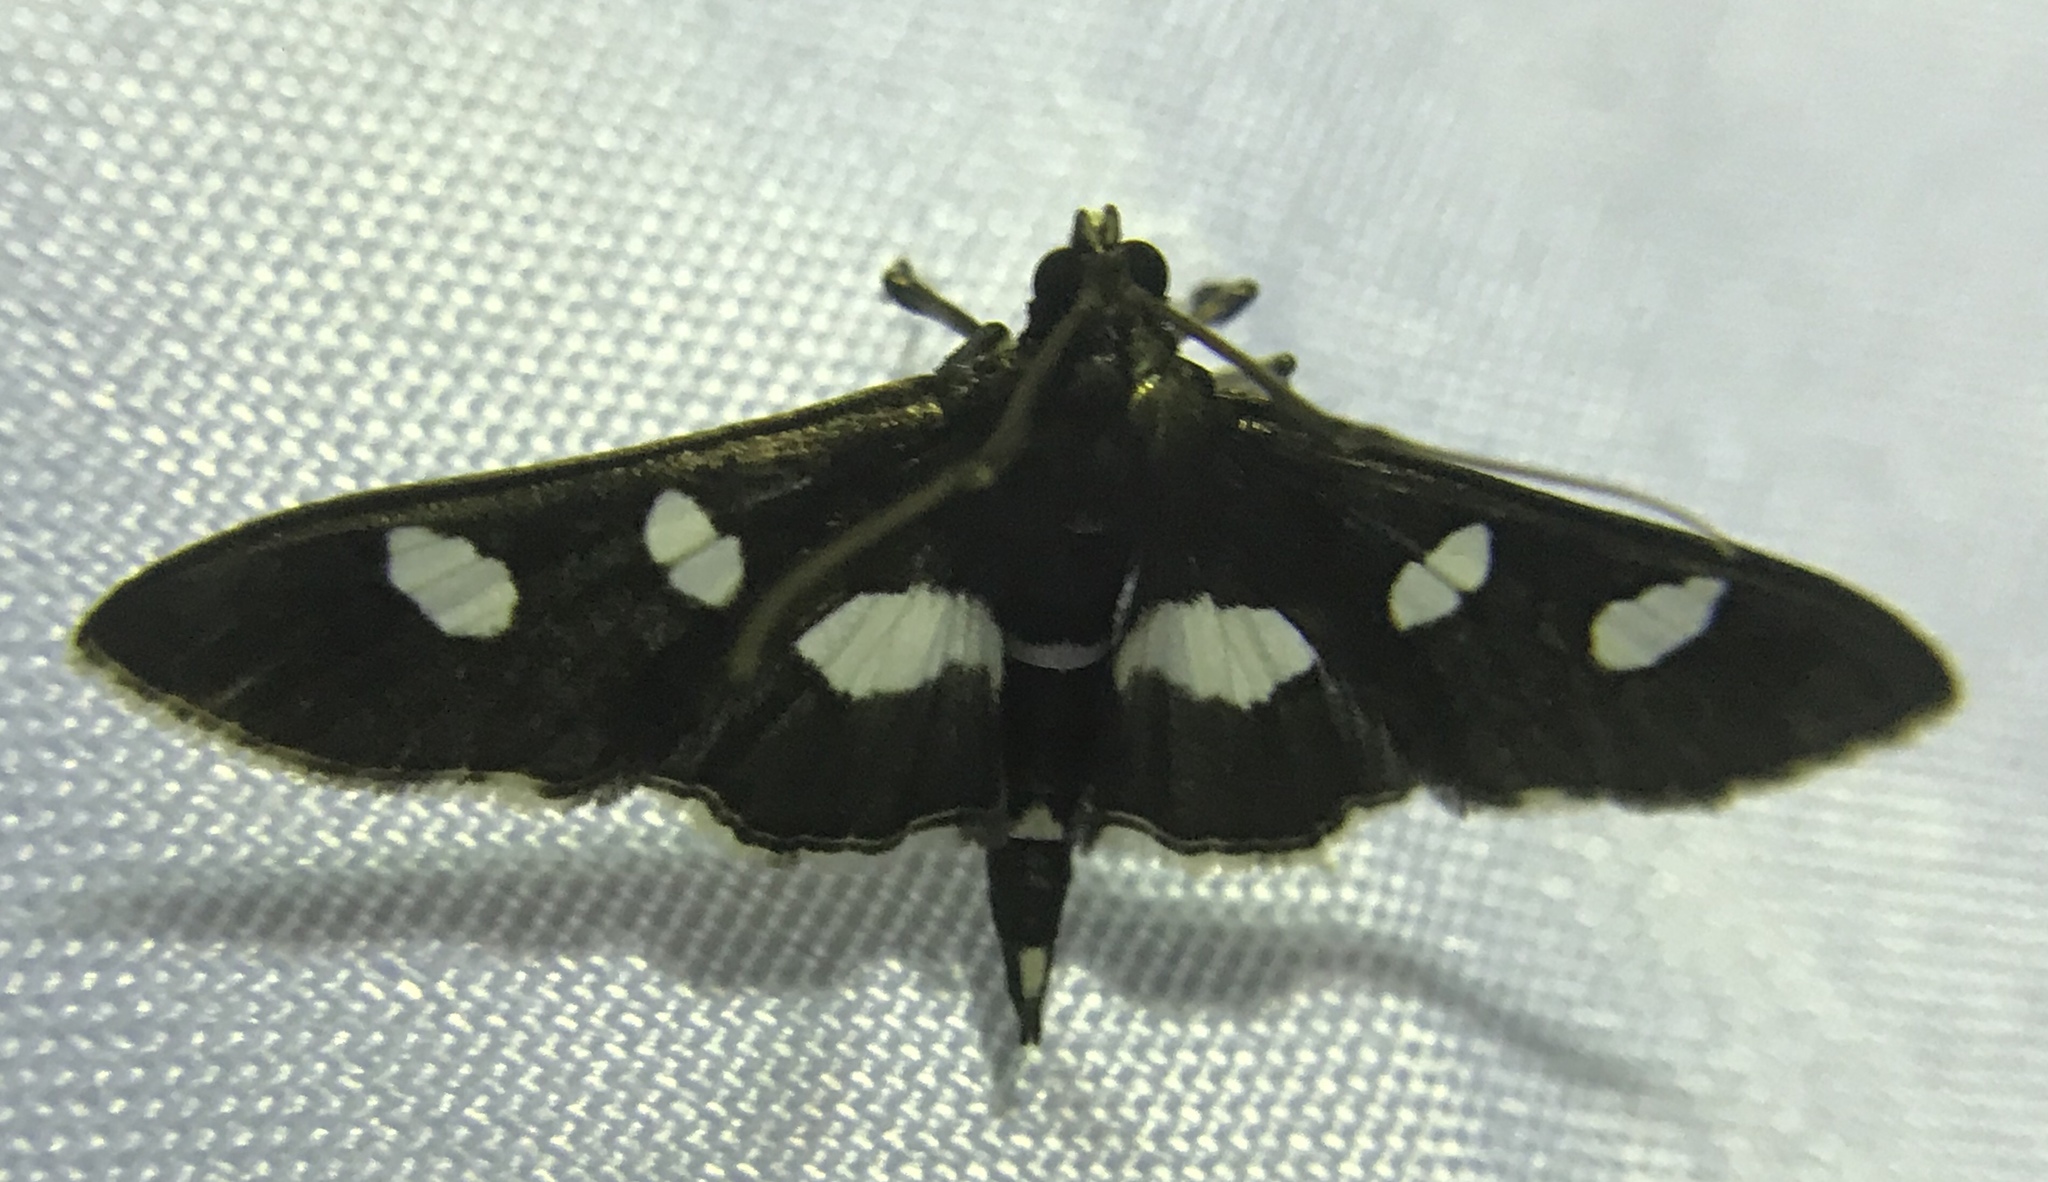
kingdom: Animalia
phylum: Arthropoda
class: Insecta
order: Lepidoptera
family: Crambidae
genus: Desmia
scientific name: Desmia funeralis
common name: Grape leaf folder moth
